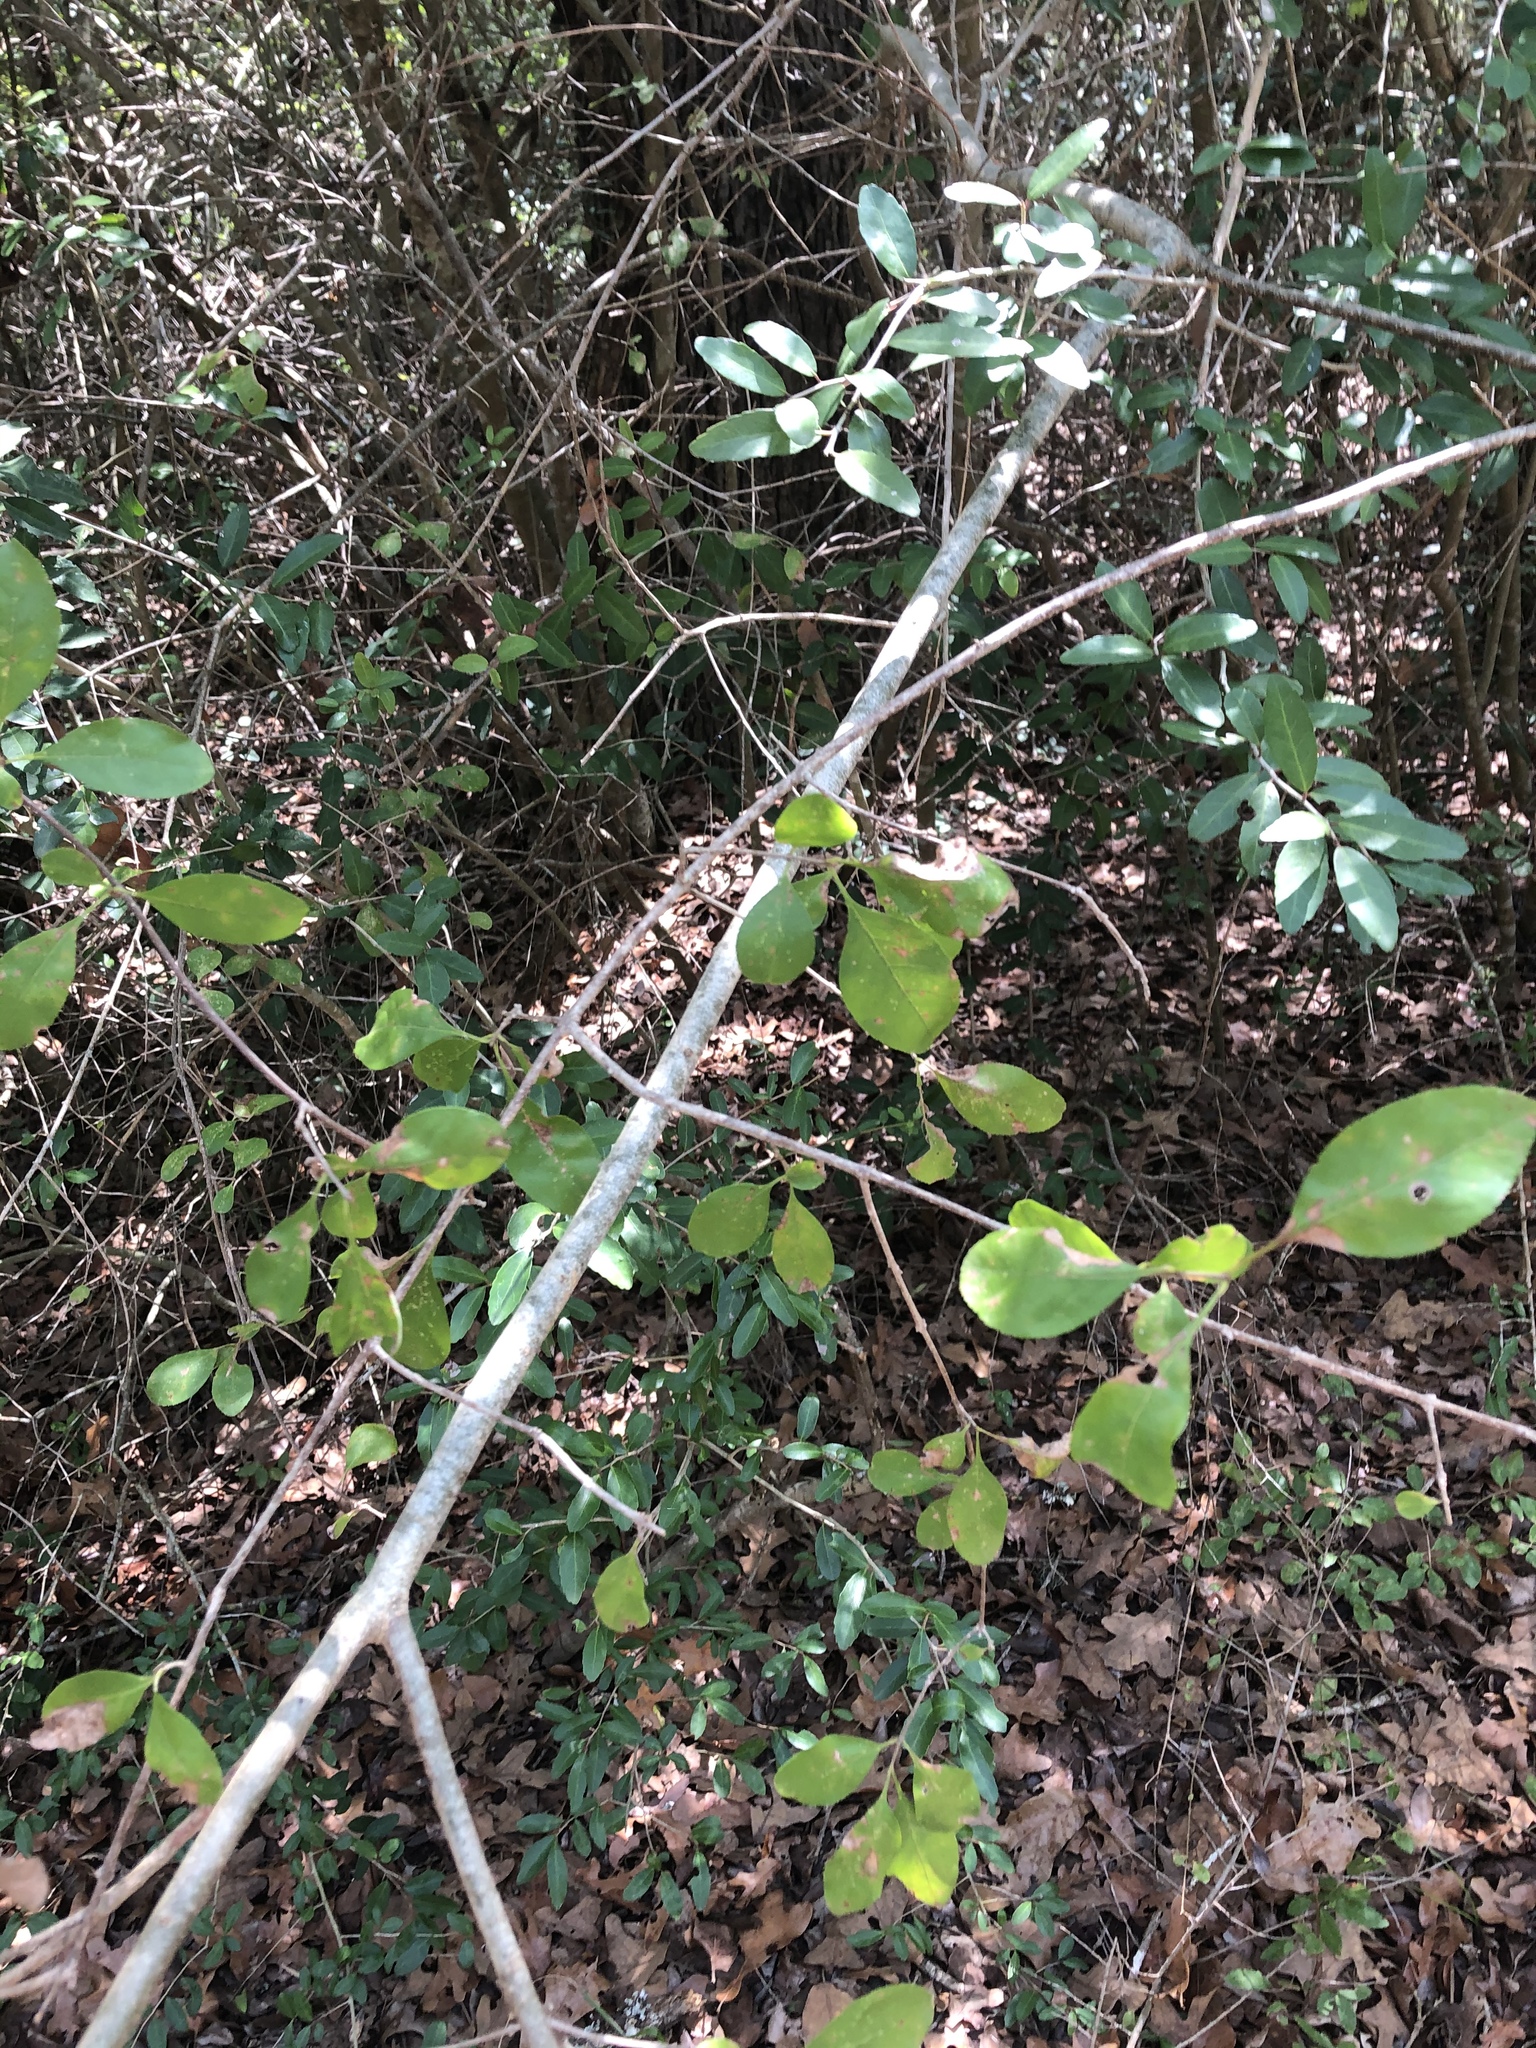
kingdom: Plantae
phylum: Tracheophyta
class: Magnoliopsida
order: Aquifoliales
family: Aquifoliaceae
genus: Ilex
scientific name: Ilex decidua
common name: Possum-haw
